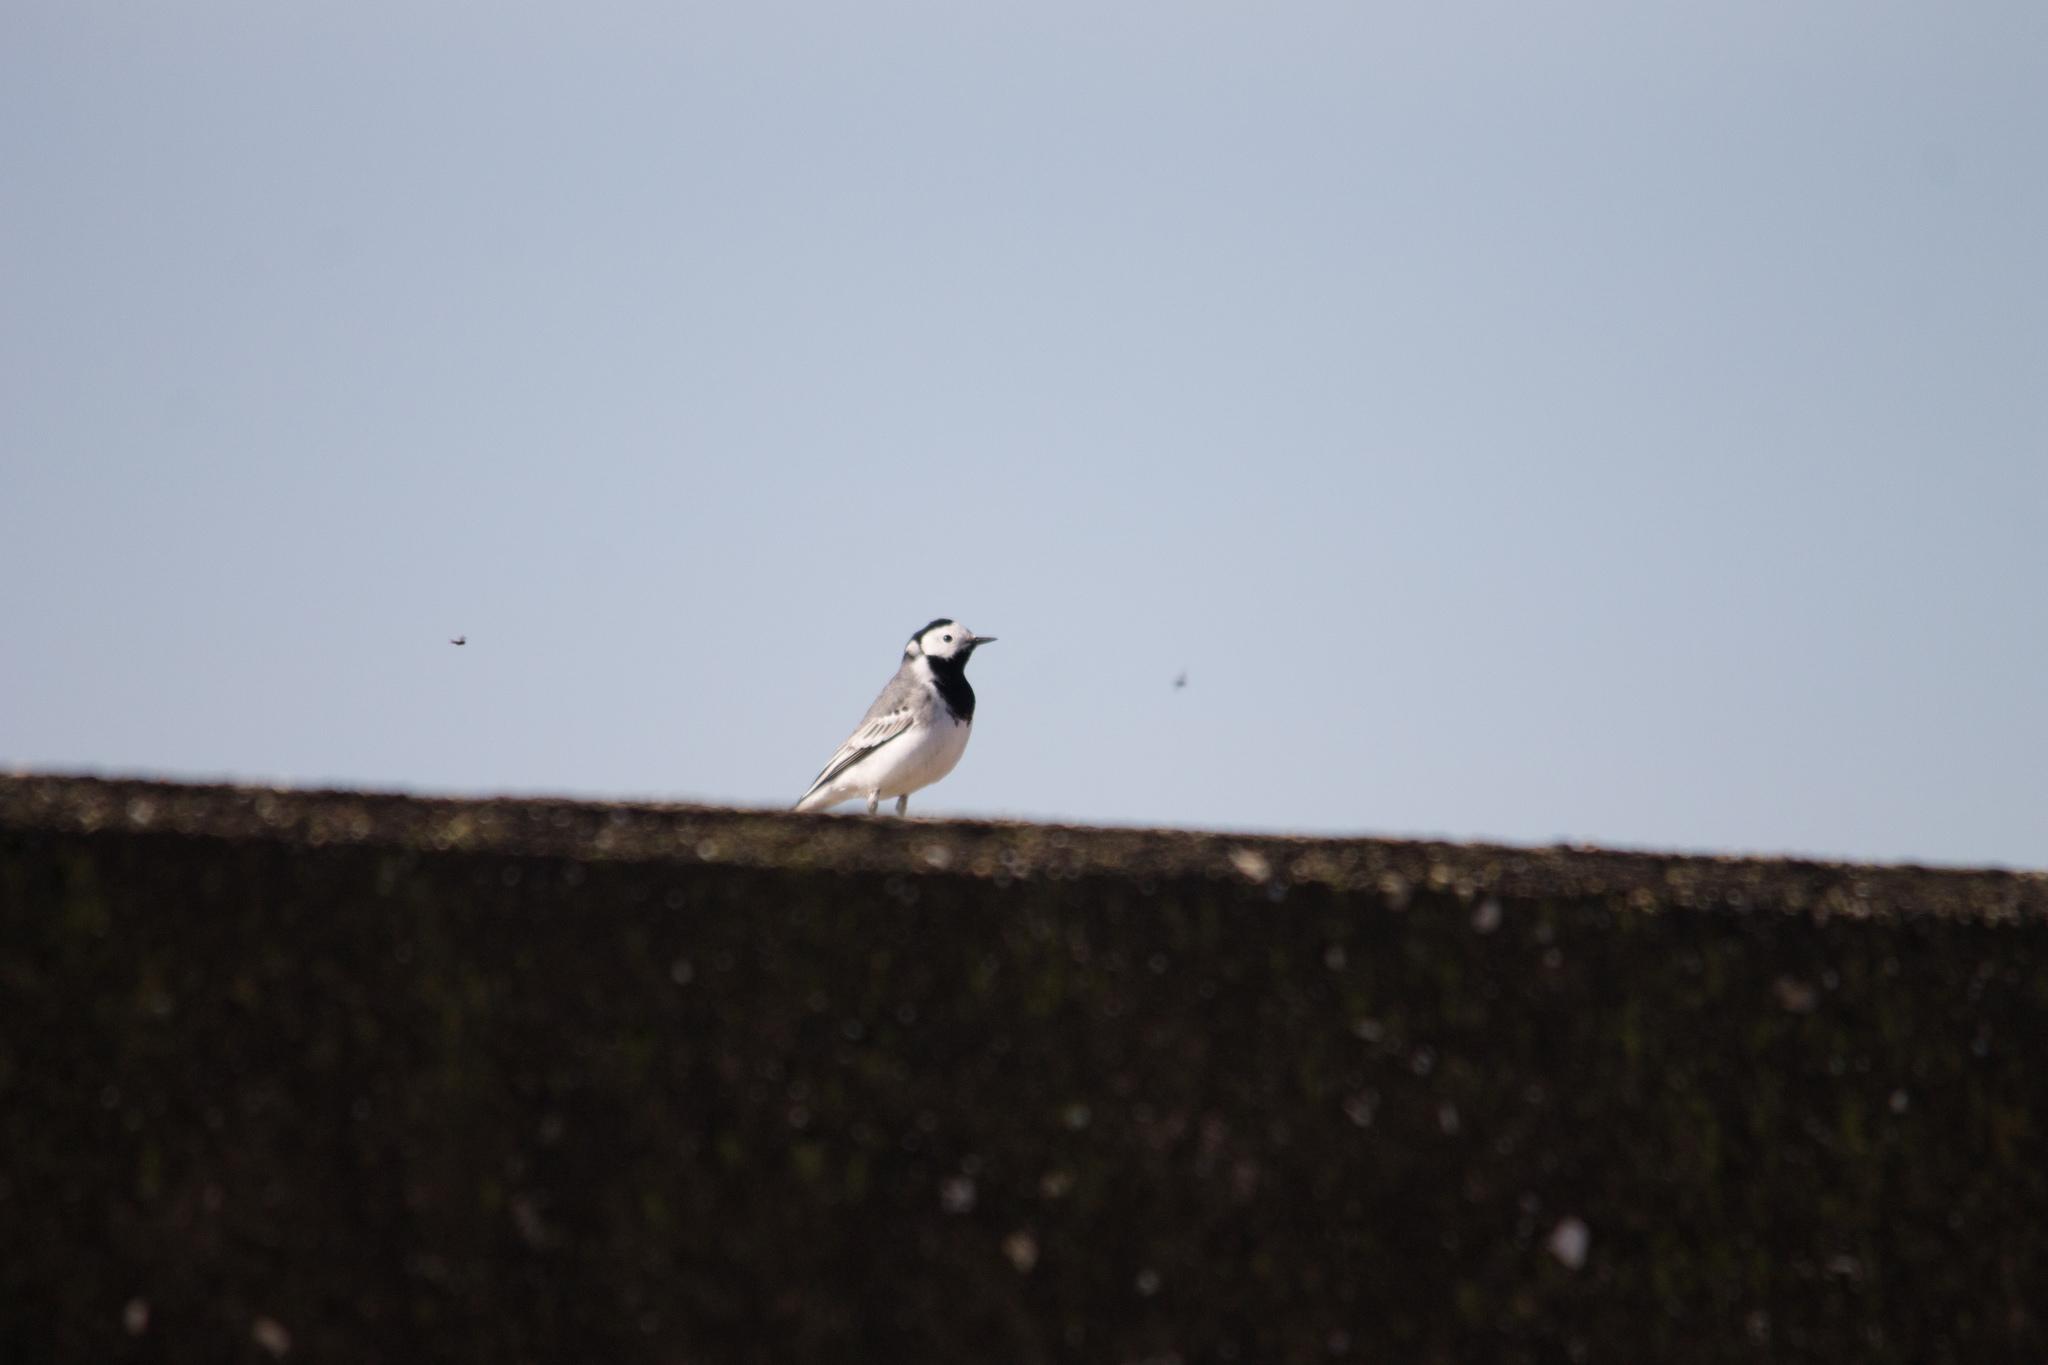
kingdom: Animalia
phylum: Chordata
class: Aves
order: Passeriformes
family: Motacillidae
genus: Motacilla
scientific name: Motacilla alba
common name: White wagtail
